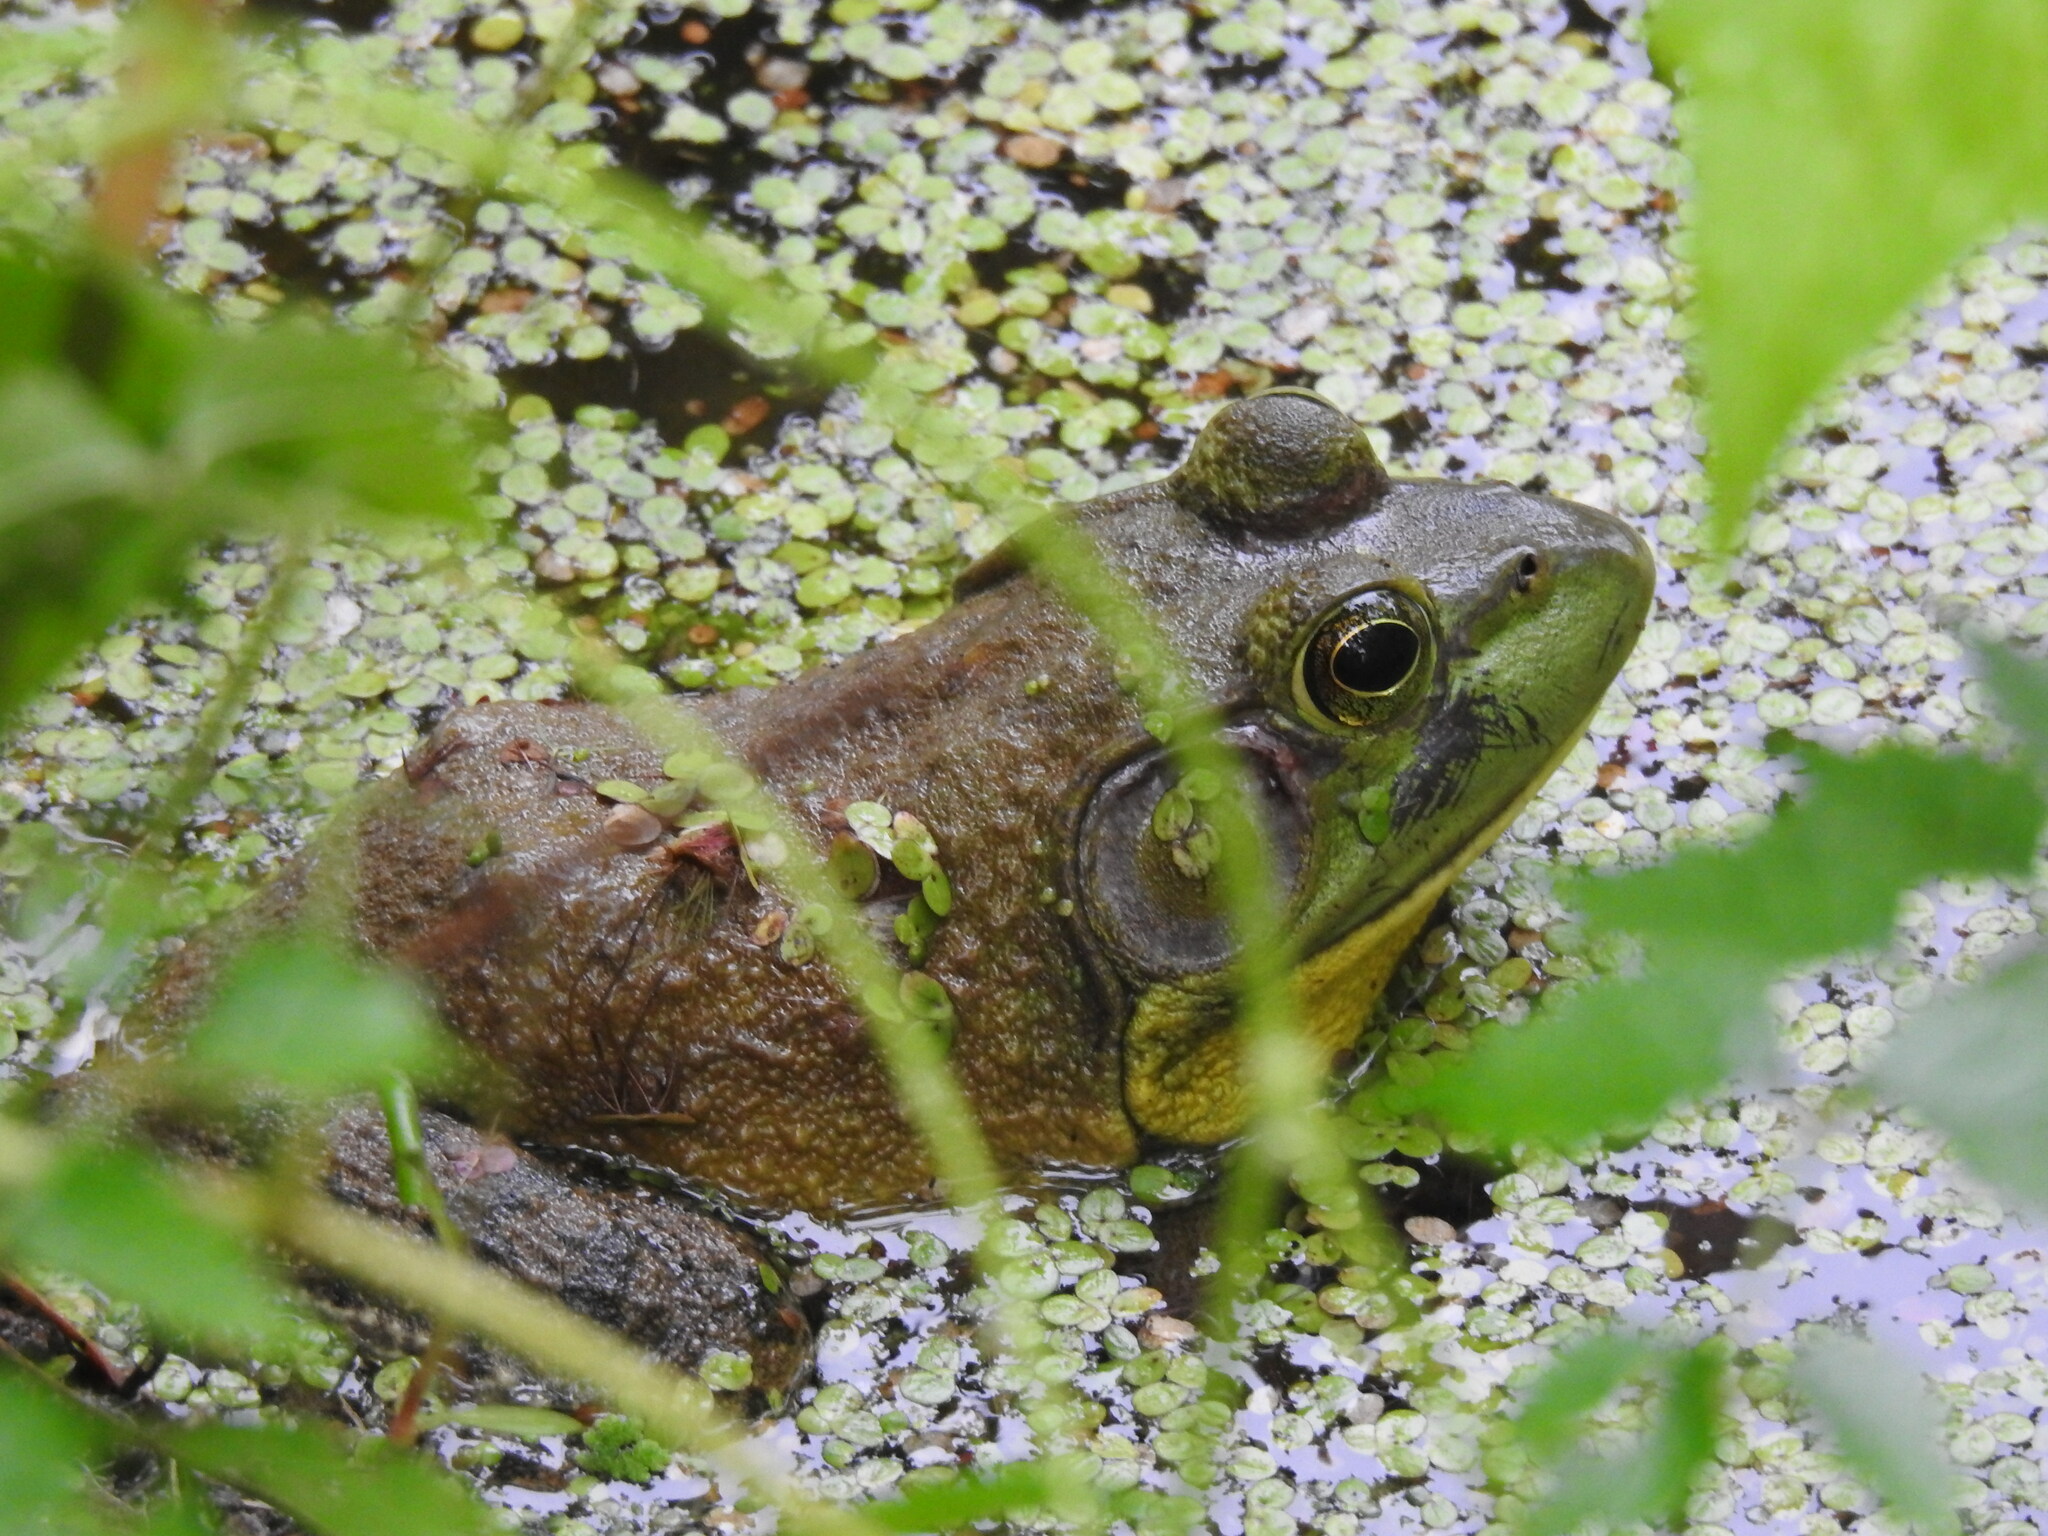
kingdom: Animalia
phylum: Chordata
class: Amphibia
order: Anura
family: Ranidae
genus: Lithobates
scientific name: Lithobates catesbeianus
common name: American bullfrog
